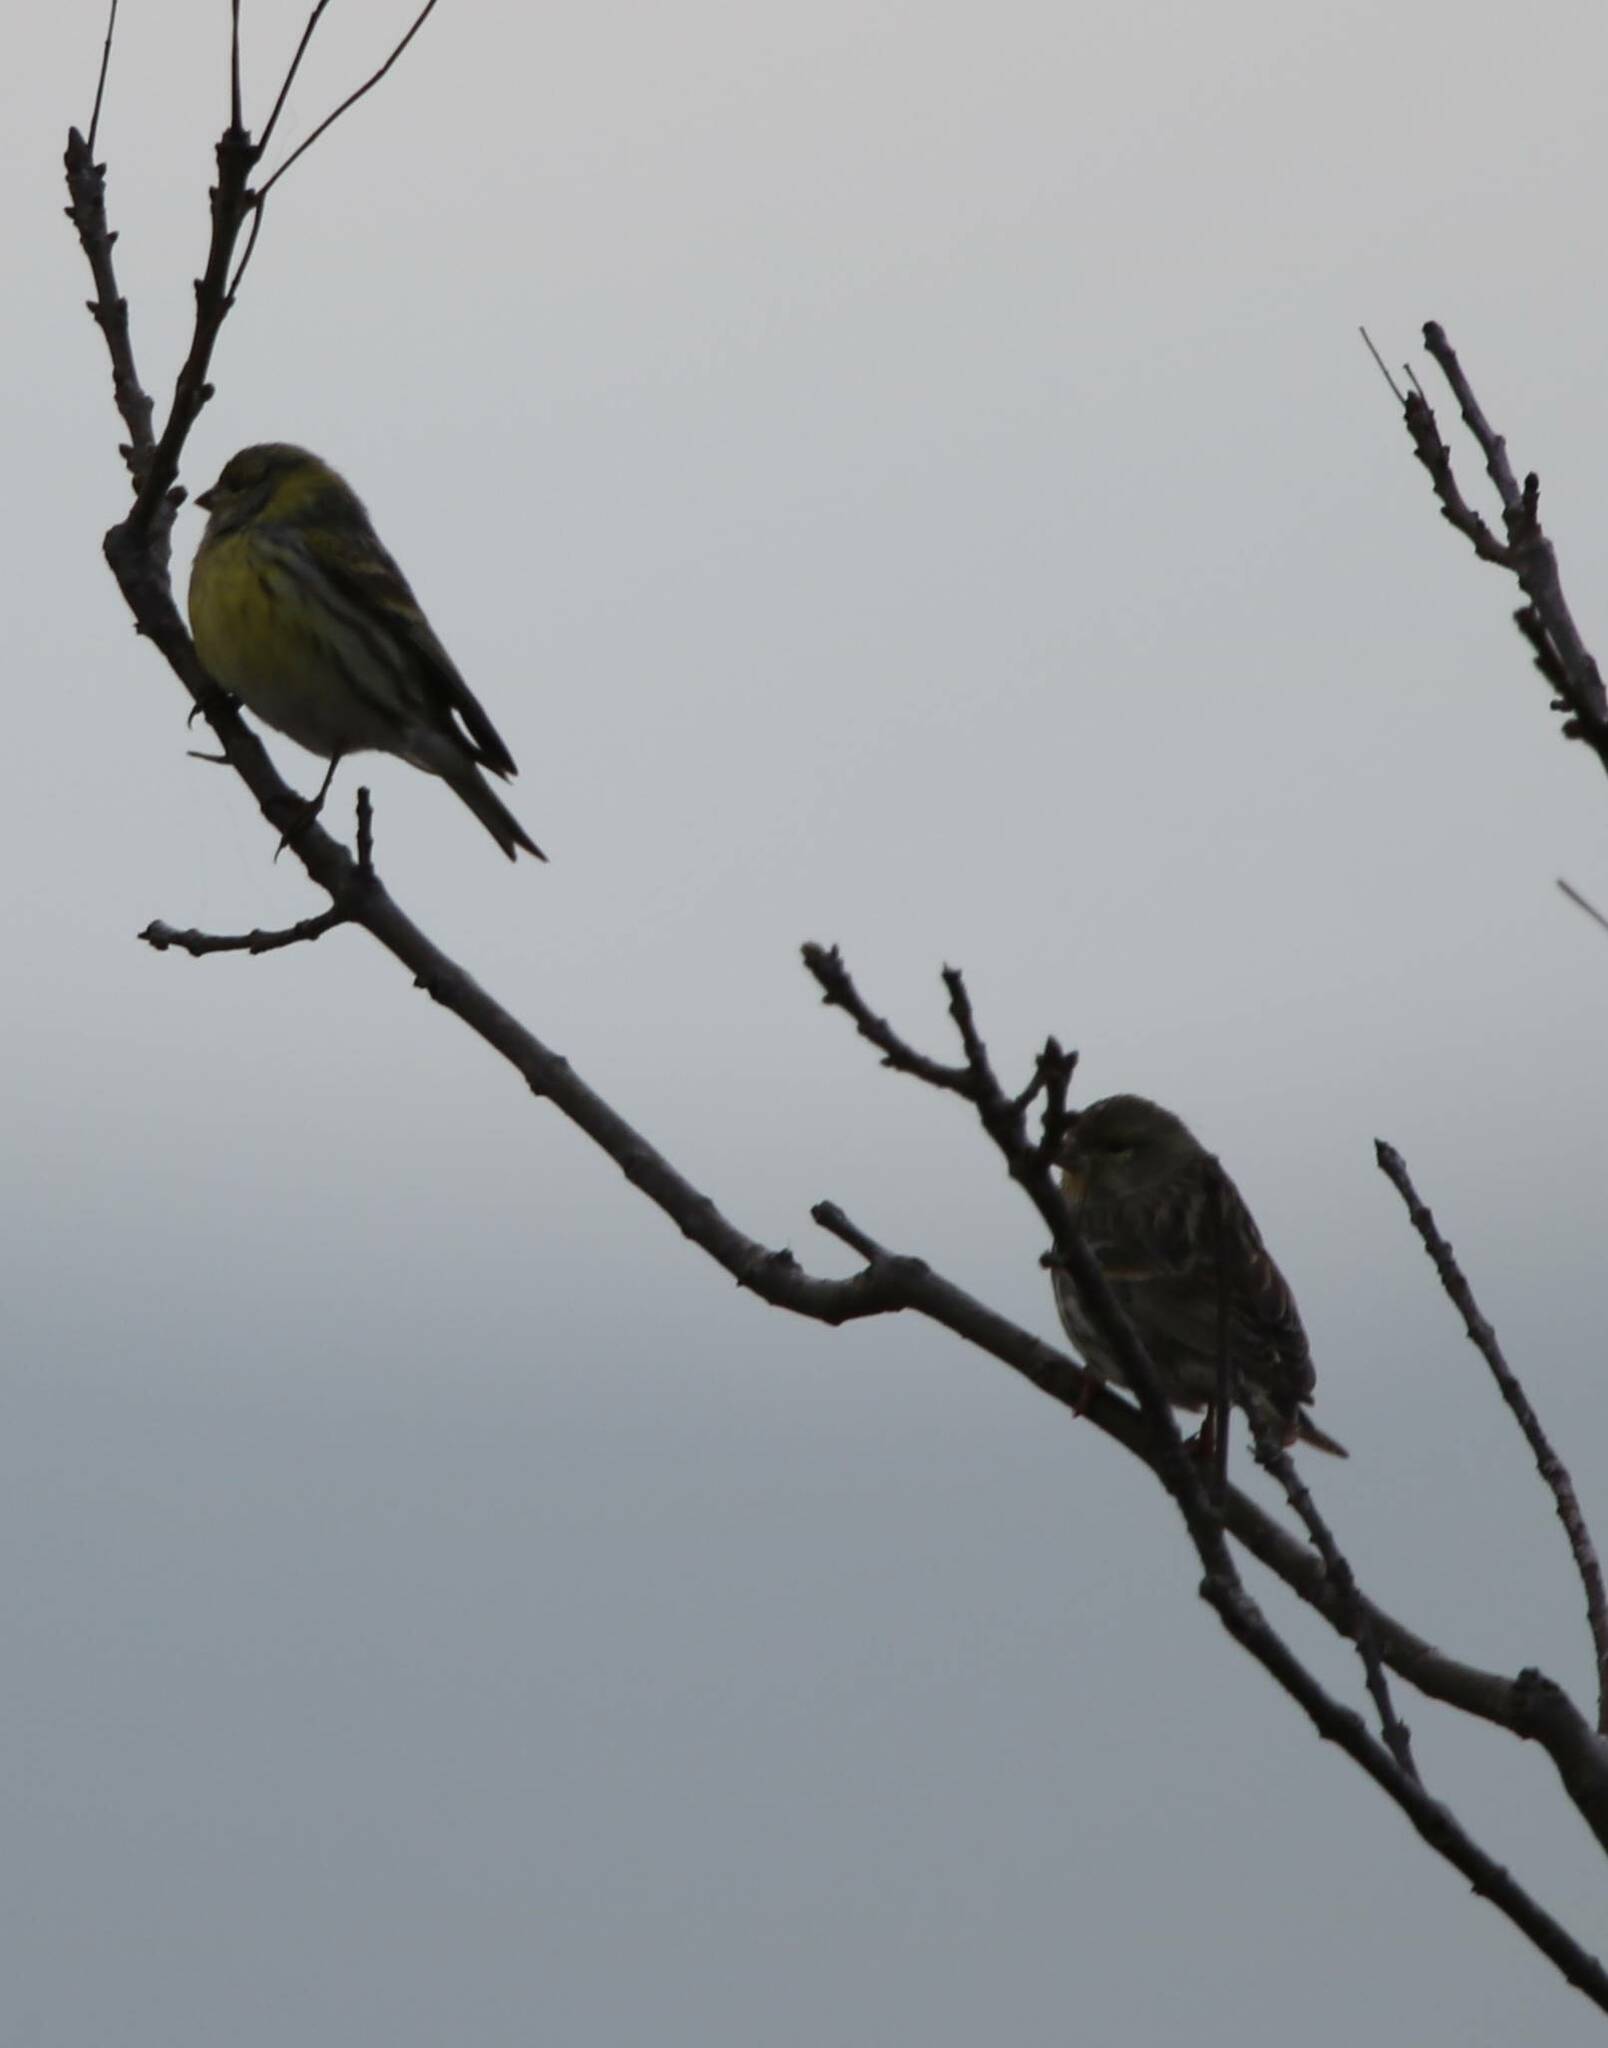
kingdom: Animalia
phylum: Chordata
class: Aves
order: Passeriformes
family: Fringillidae
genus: Serinus
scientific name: Serinus serinus
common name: European serin
